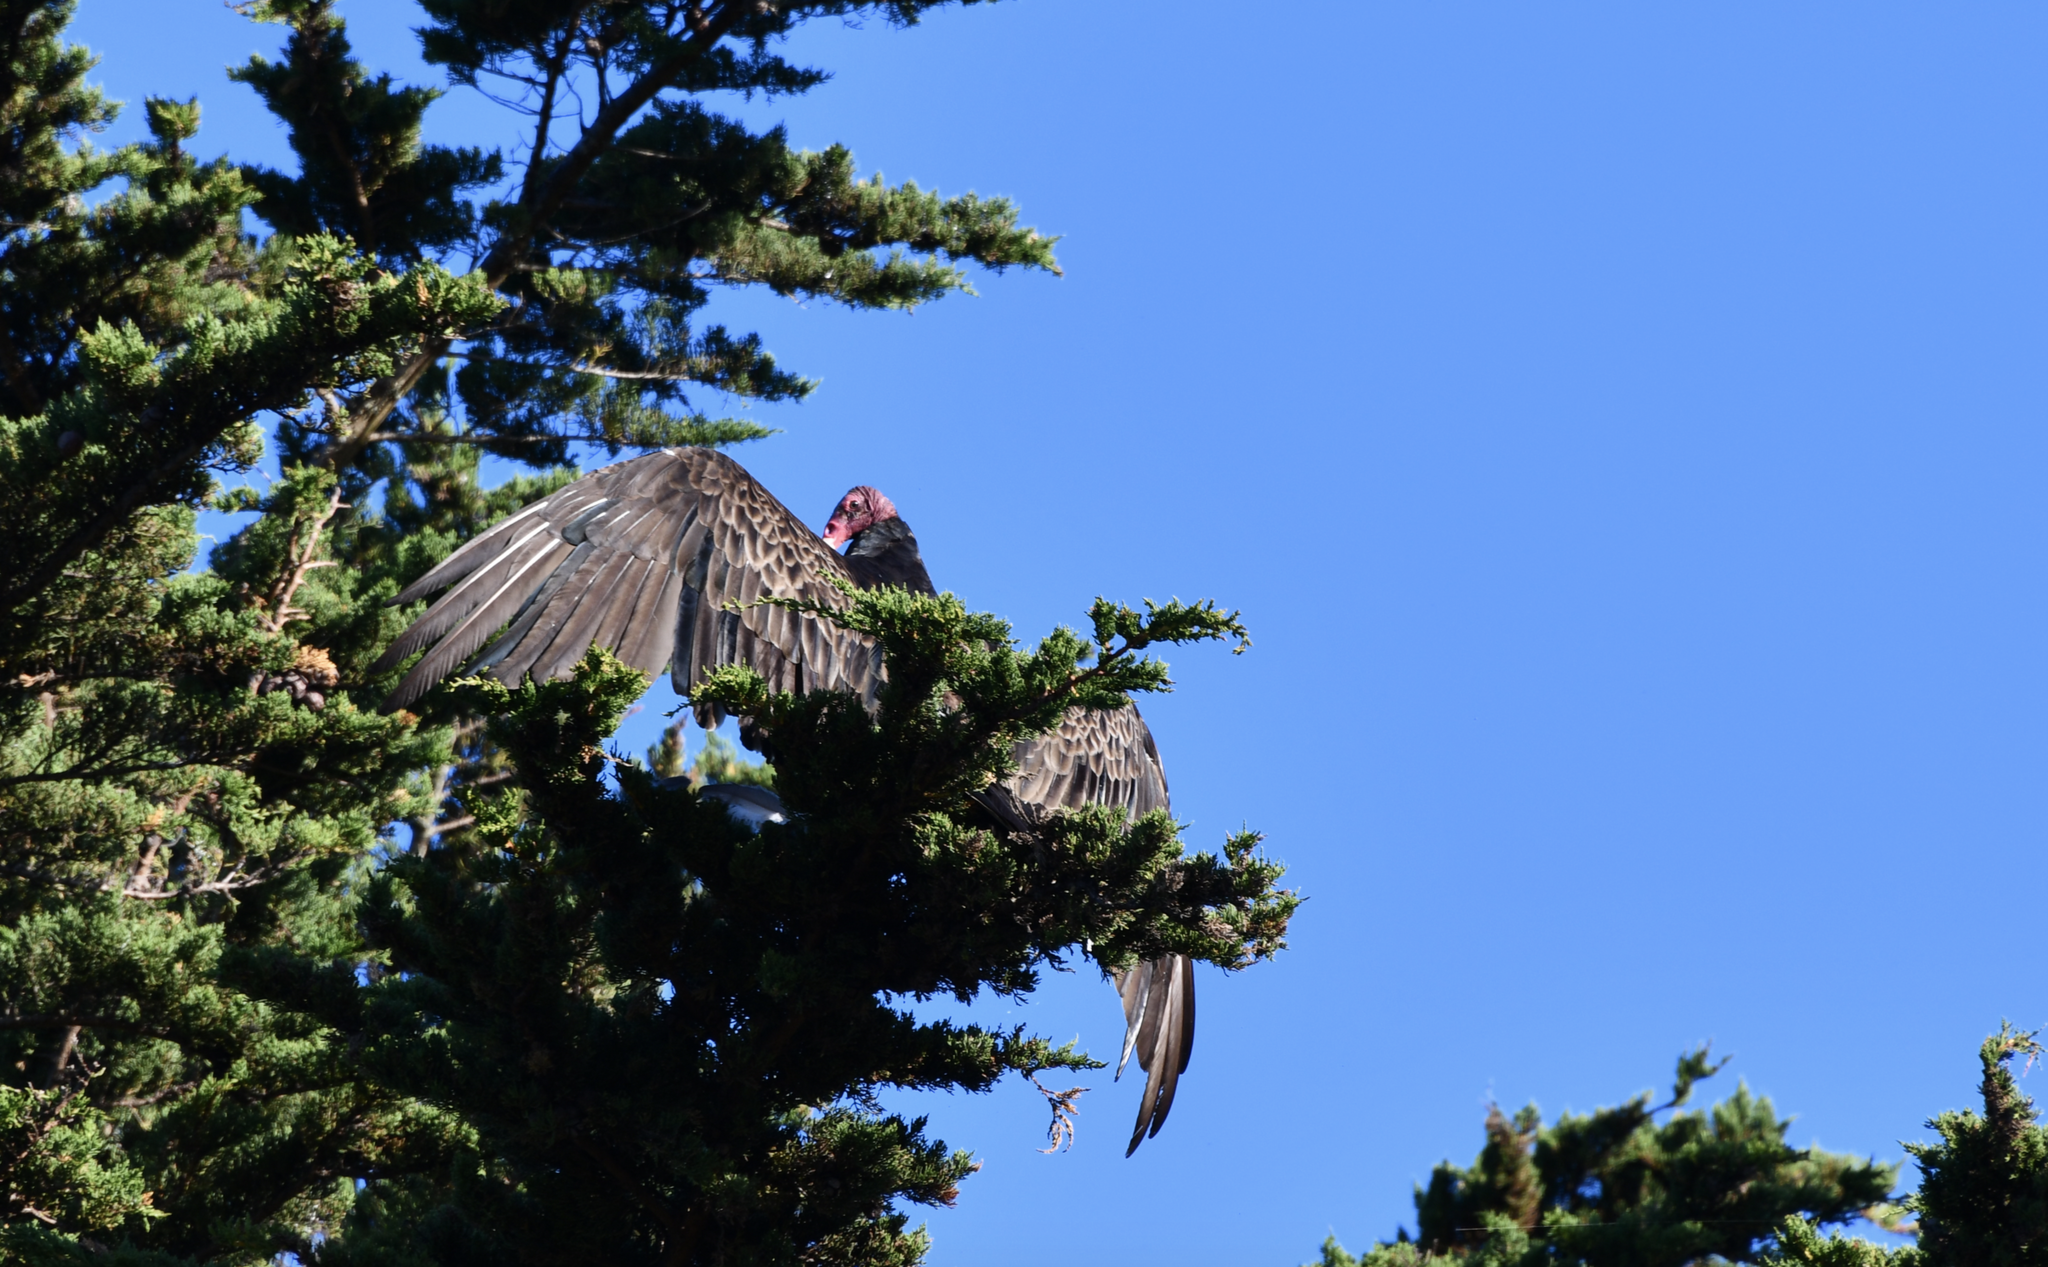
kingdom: Animalia
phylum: Chordata
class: Aves
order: Accipitriformes
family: Cathartidae
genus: Cathartes
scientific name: Cathartes aura
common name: Turkey vulture
